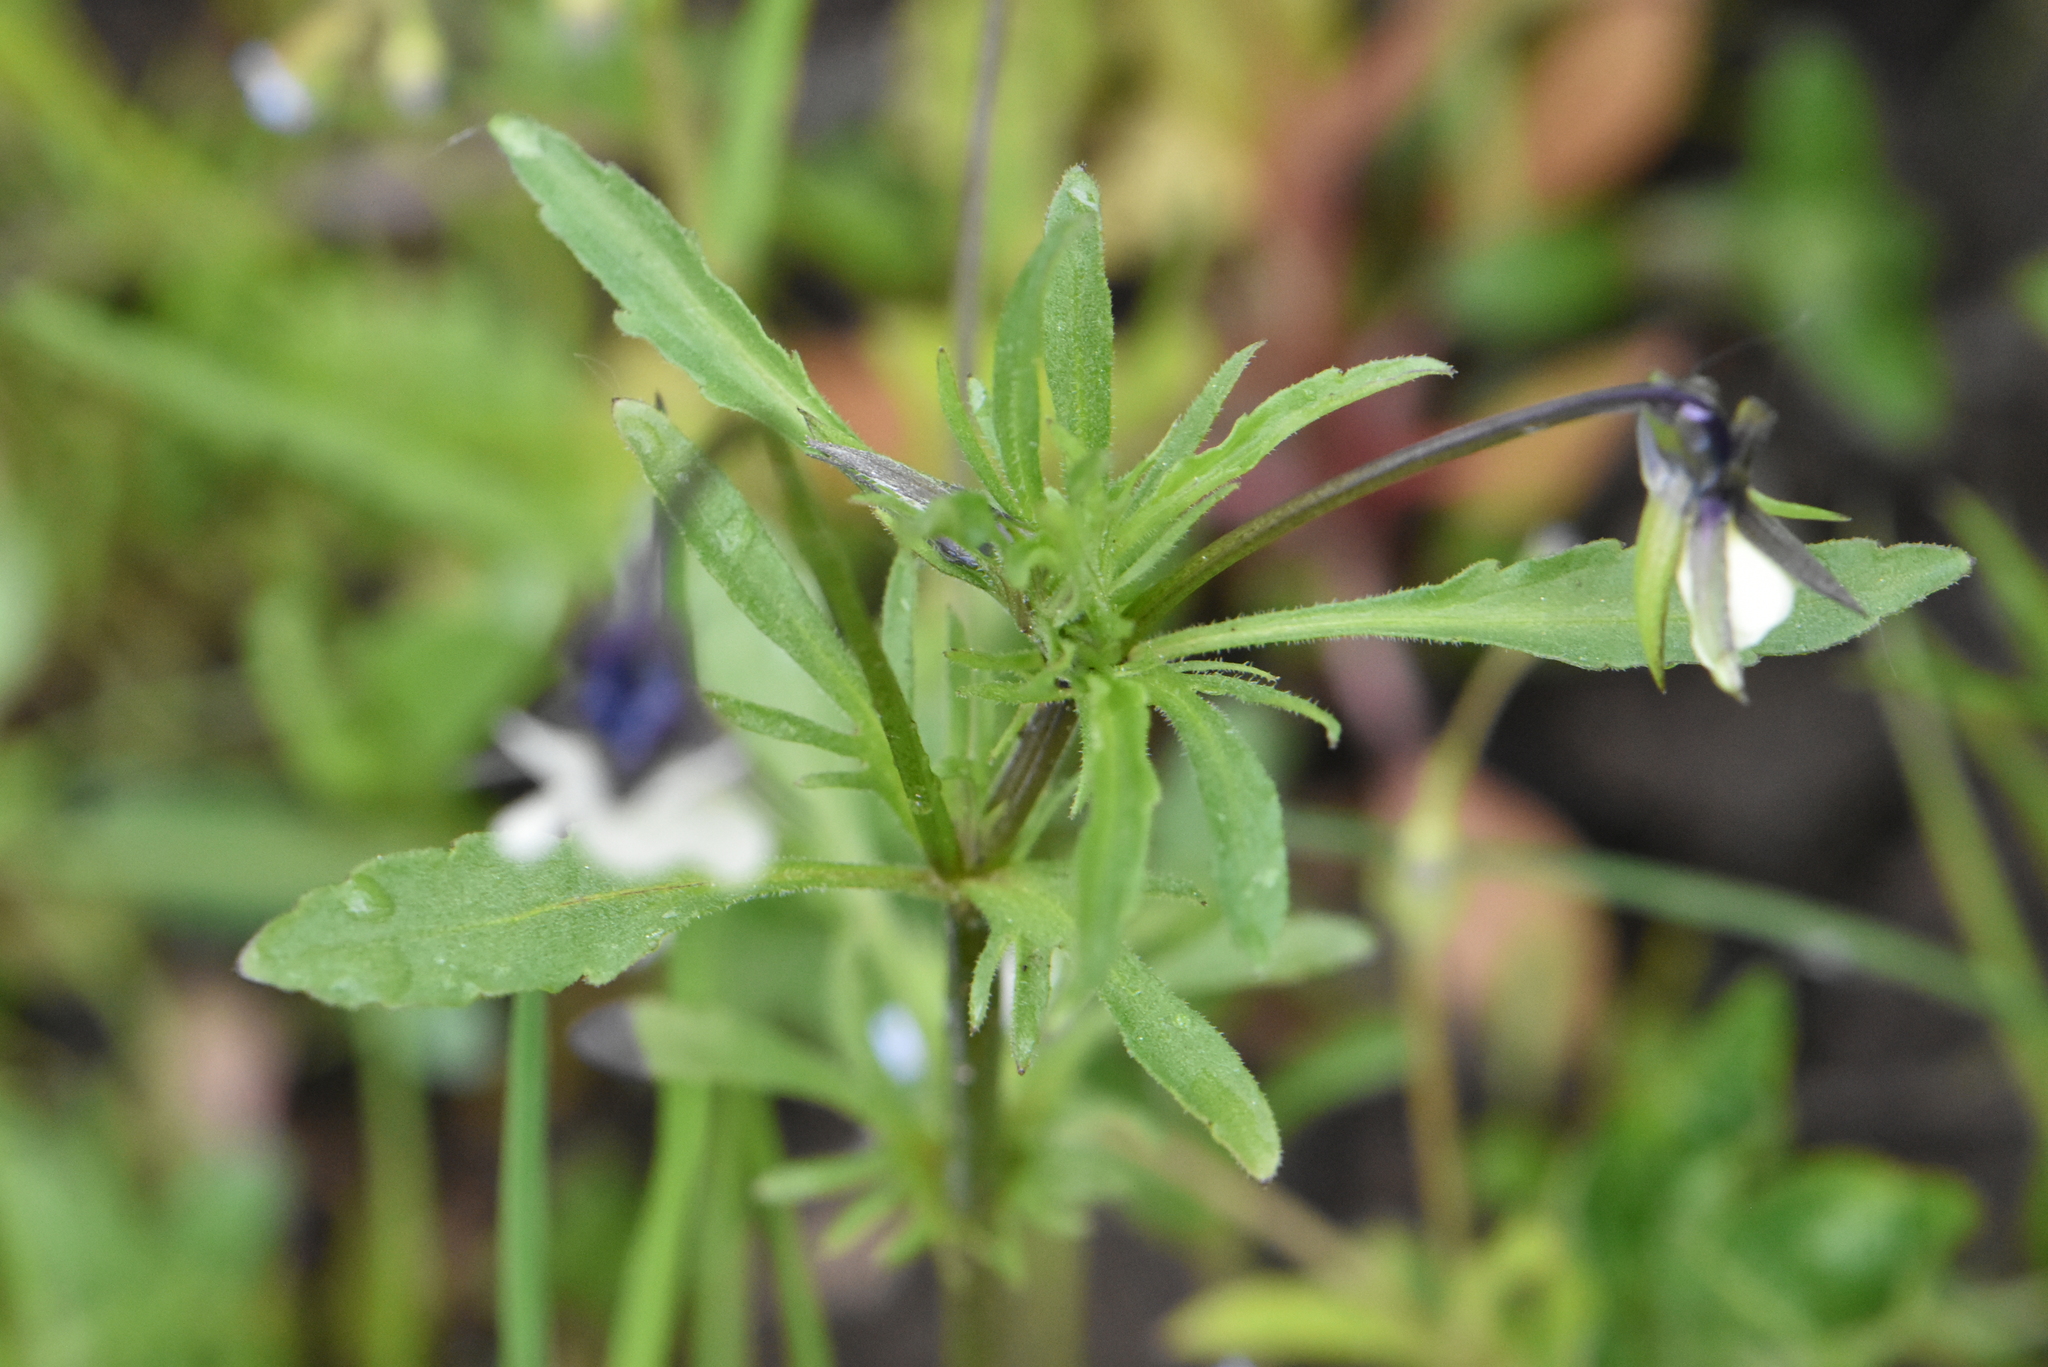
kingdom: Plantae
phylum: Tracheophyta
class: Magnoliopsida
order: Malpighiales
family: Violaceae
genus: Viola
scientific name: Viola arvensis
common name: Field pansy
